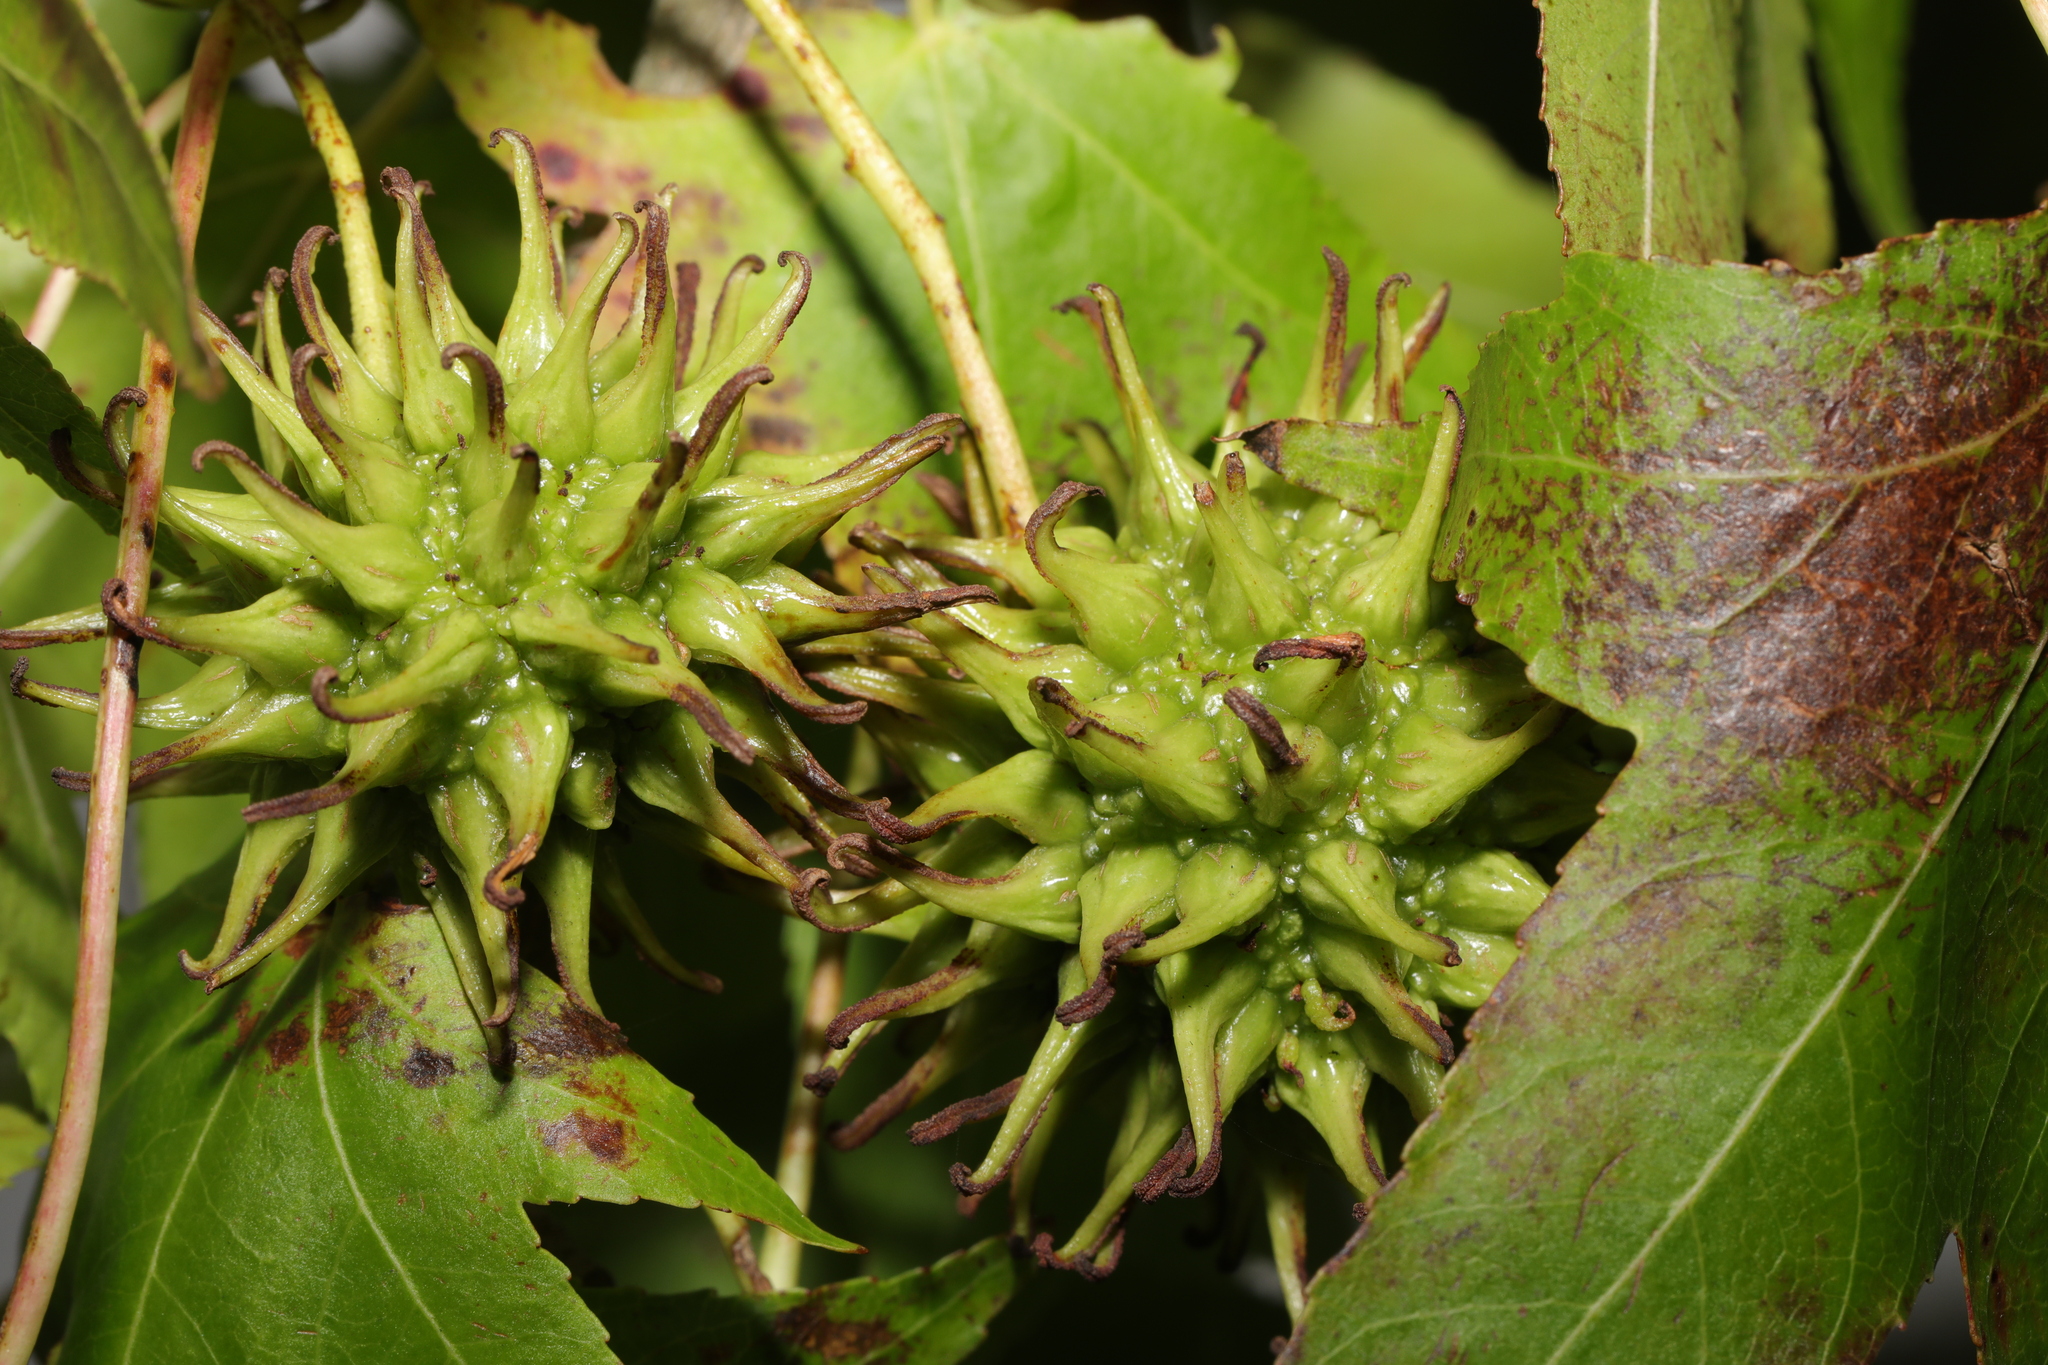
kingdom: Plantae
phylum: Tracheophyta
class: Magnoliopsida
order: Saxifragales
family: Altingiaceae
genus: Liquidambar
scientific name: Liquidambar styraciflua
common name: Sweet gum
